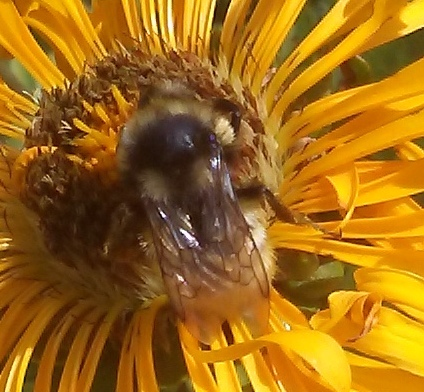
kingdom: Animalia
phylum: Arthropoda
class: Insecta
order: Hymenoptera
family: Apidae
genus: Bombus
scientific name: Bombus bifarius
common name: Two form bumble bee
